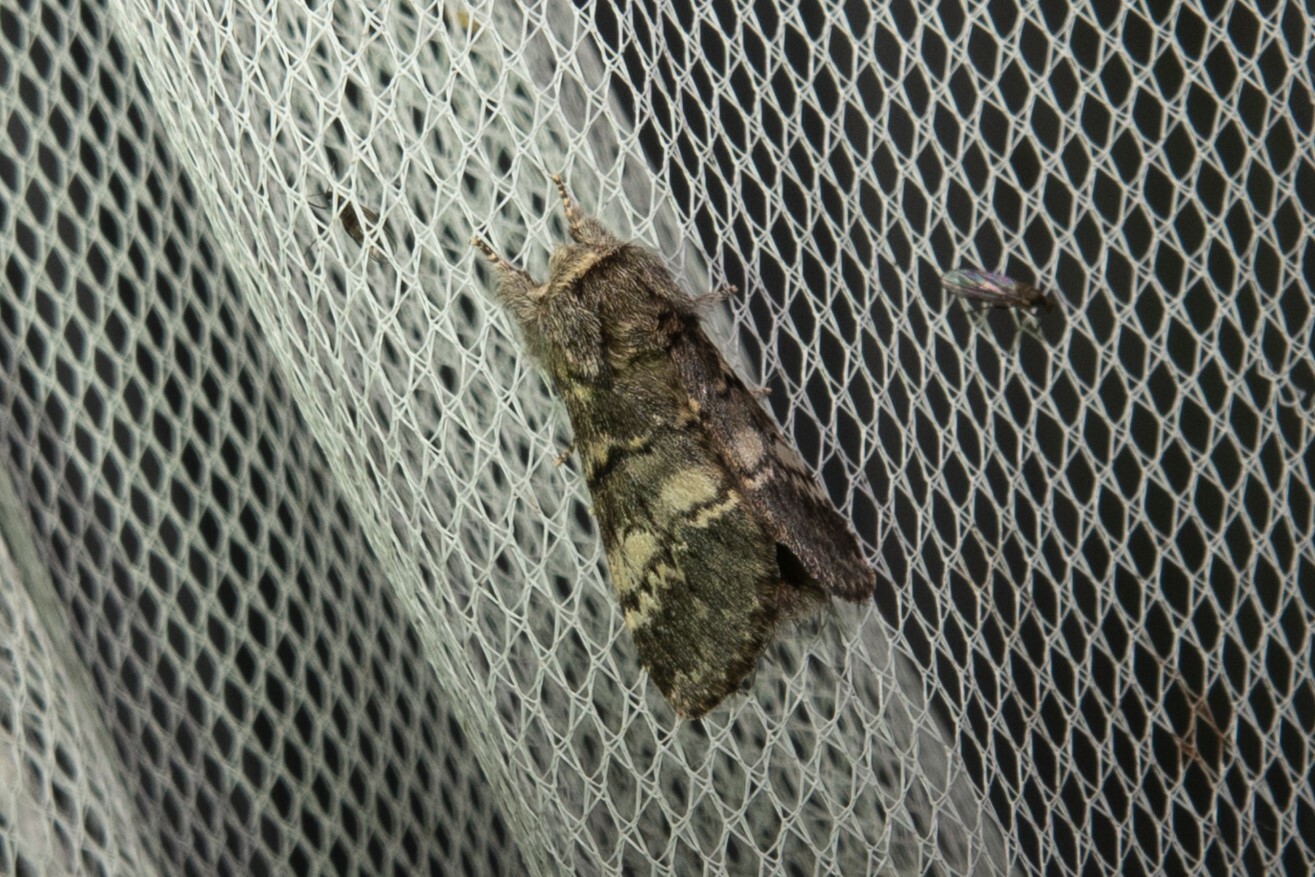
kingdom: Animalia
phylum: Arthropoda
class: Insecta
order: Lepidoptera
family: Notodontidae
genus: Drymonia
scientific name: Drymonia ruficornis
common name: Lunar marbled brown
